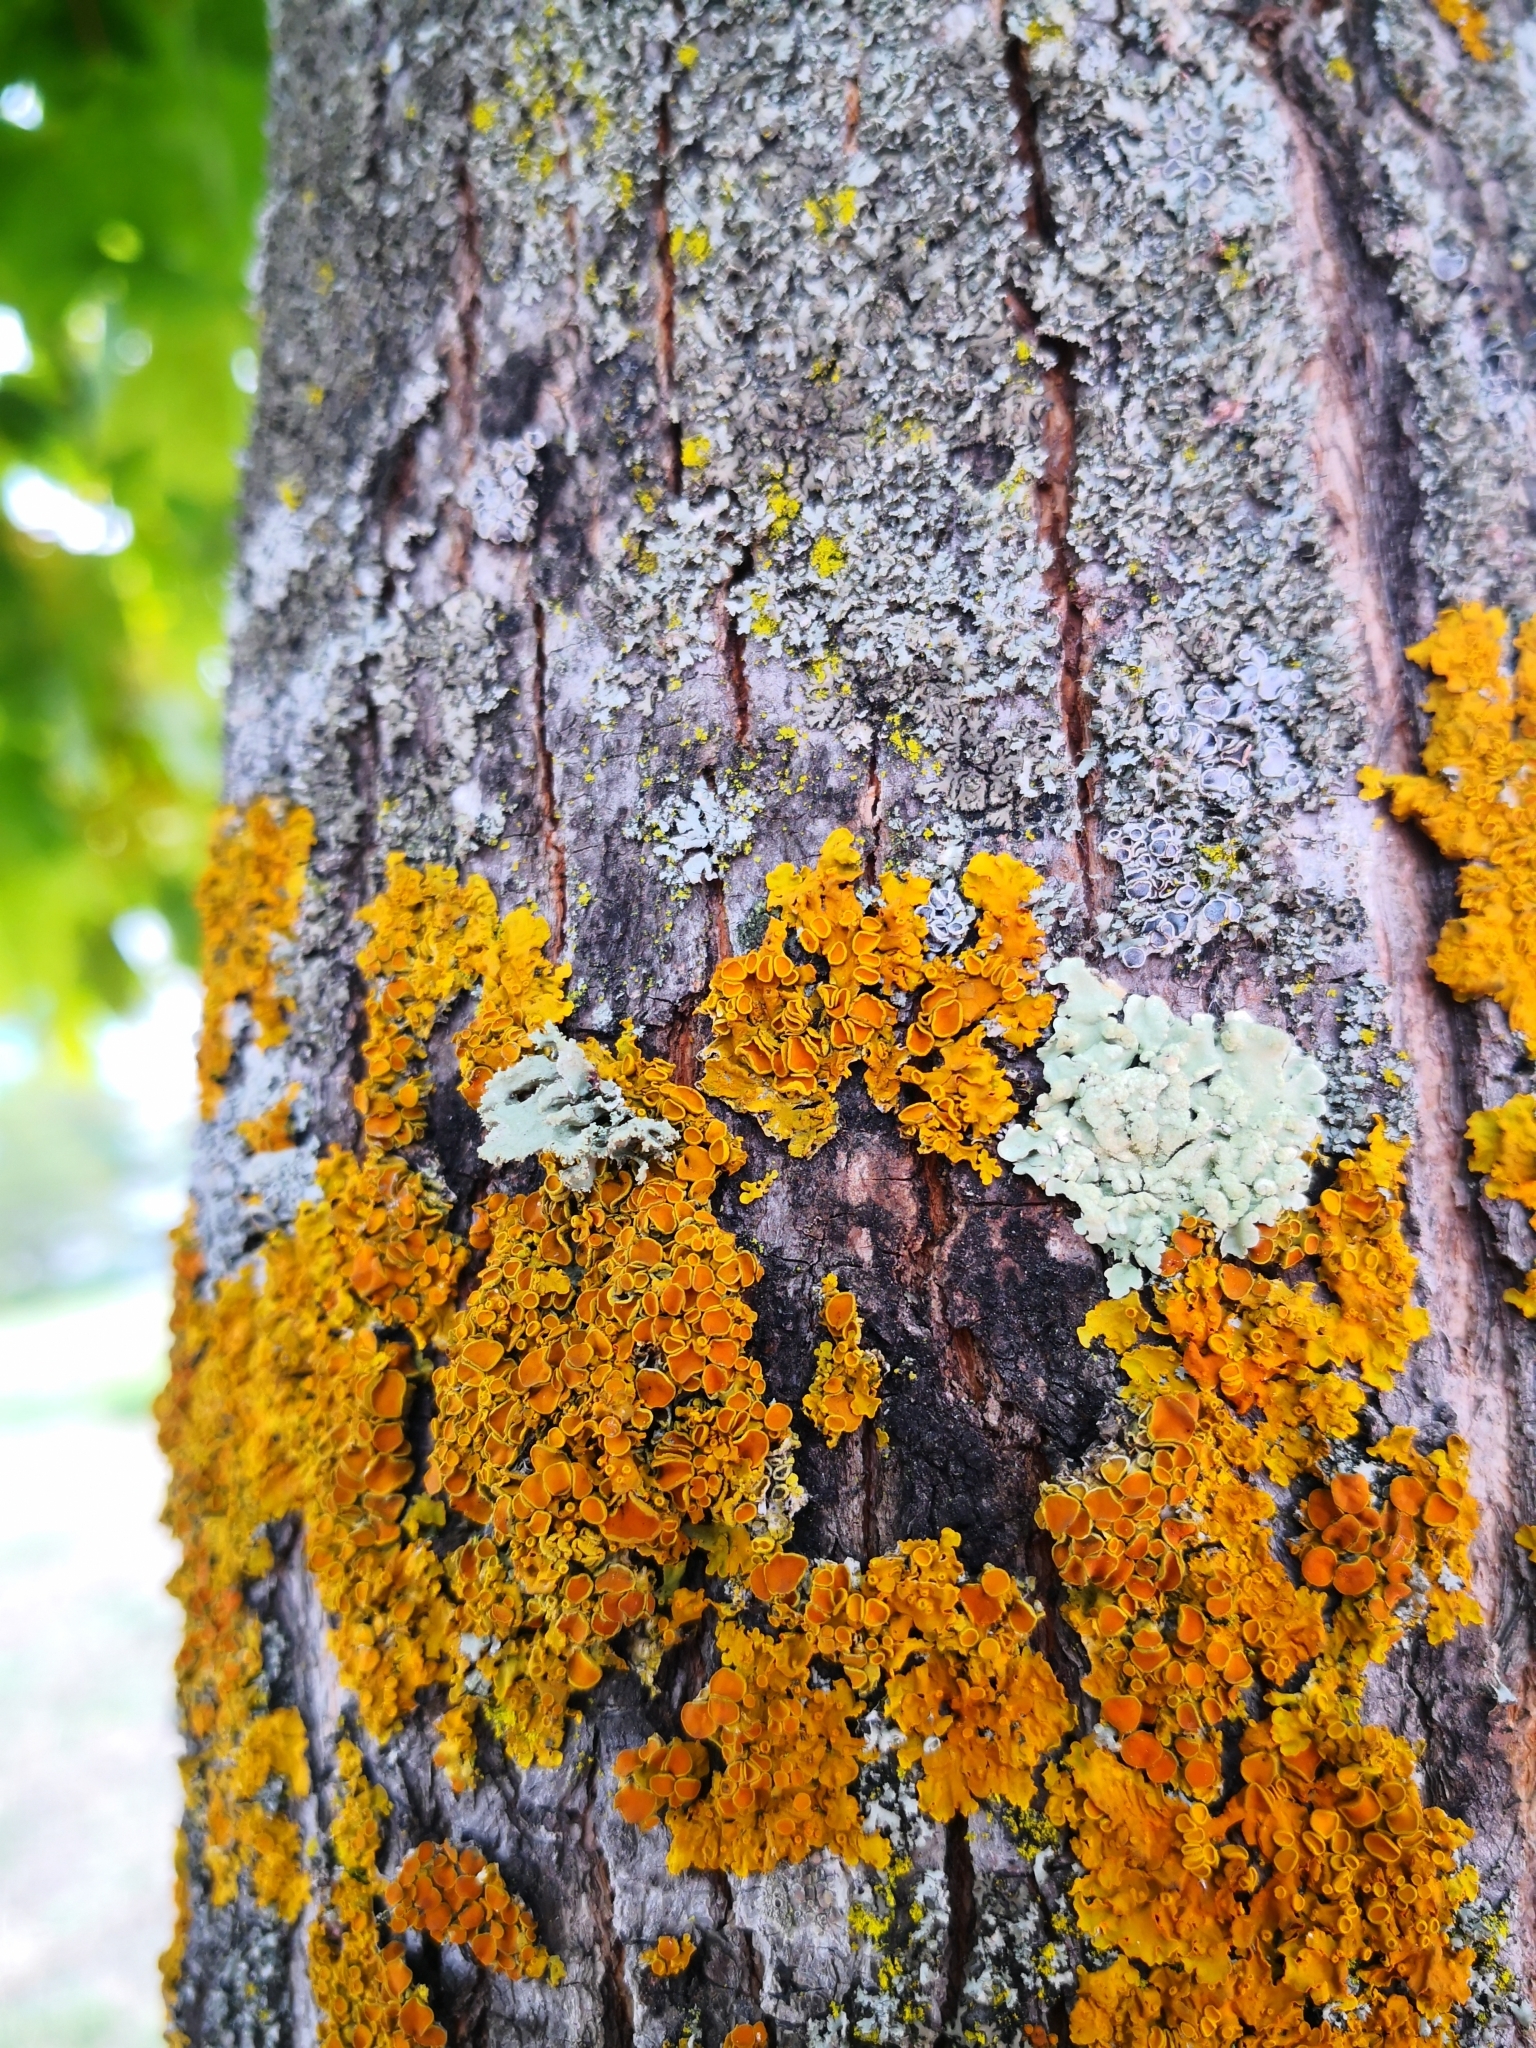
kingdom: Fungi
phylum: Ascomycota
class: Lecanoromycetes
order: Teloschistales
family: Teloschistaceae
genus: Xanthoria
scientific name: Xanthoria parietina
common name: Common orange lichen
